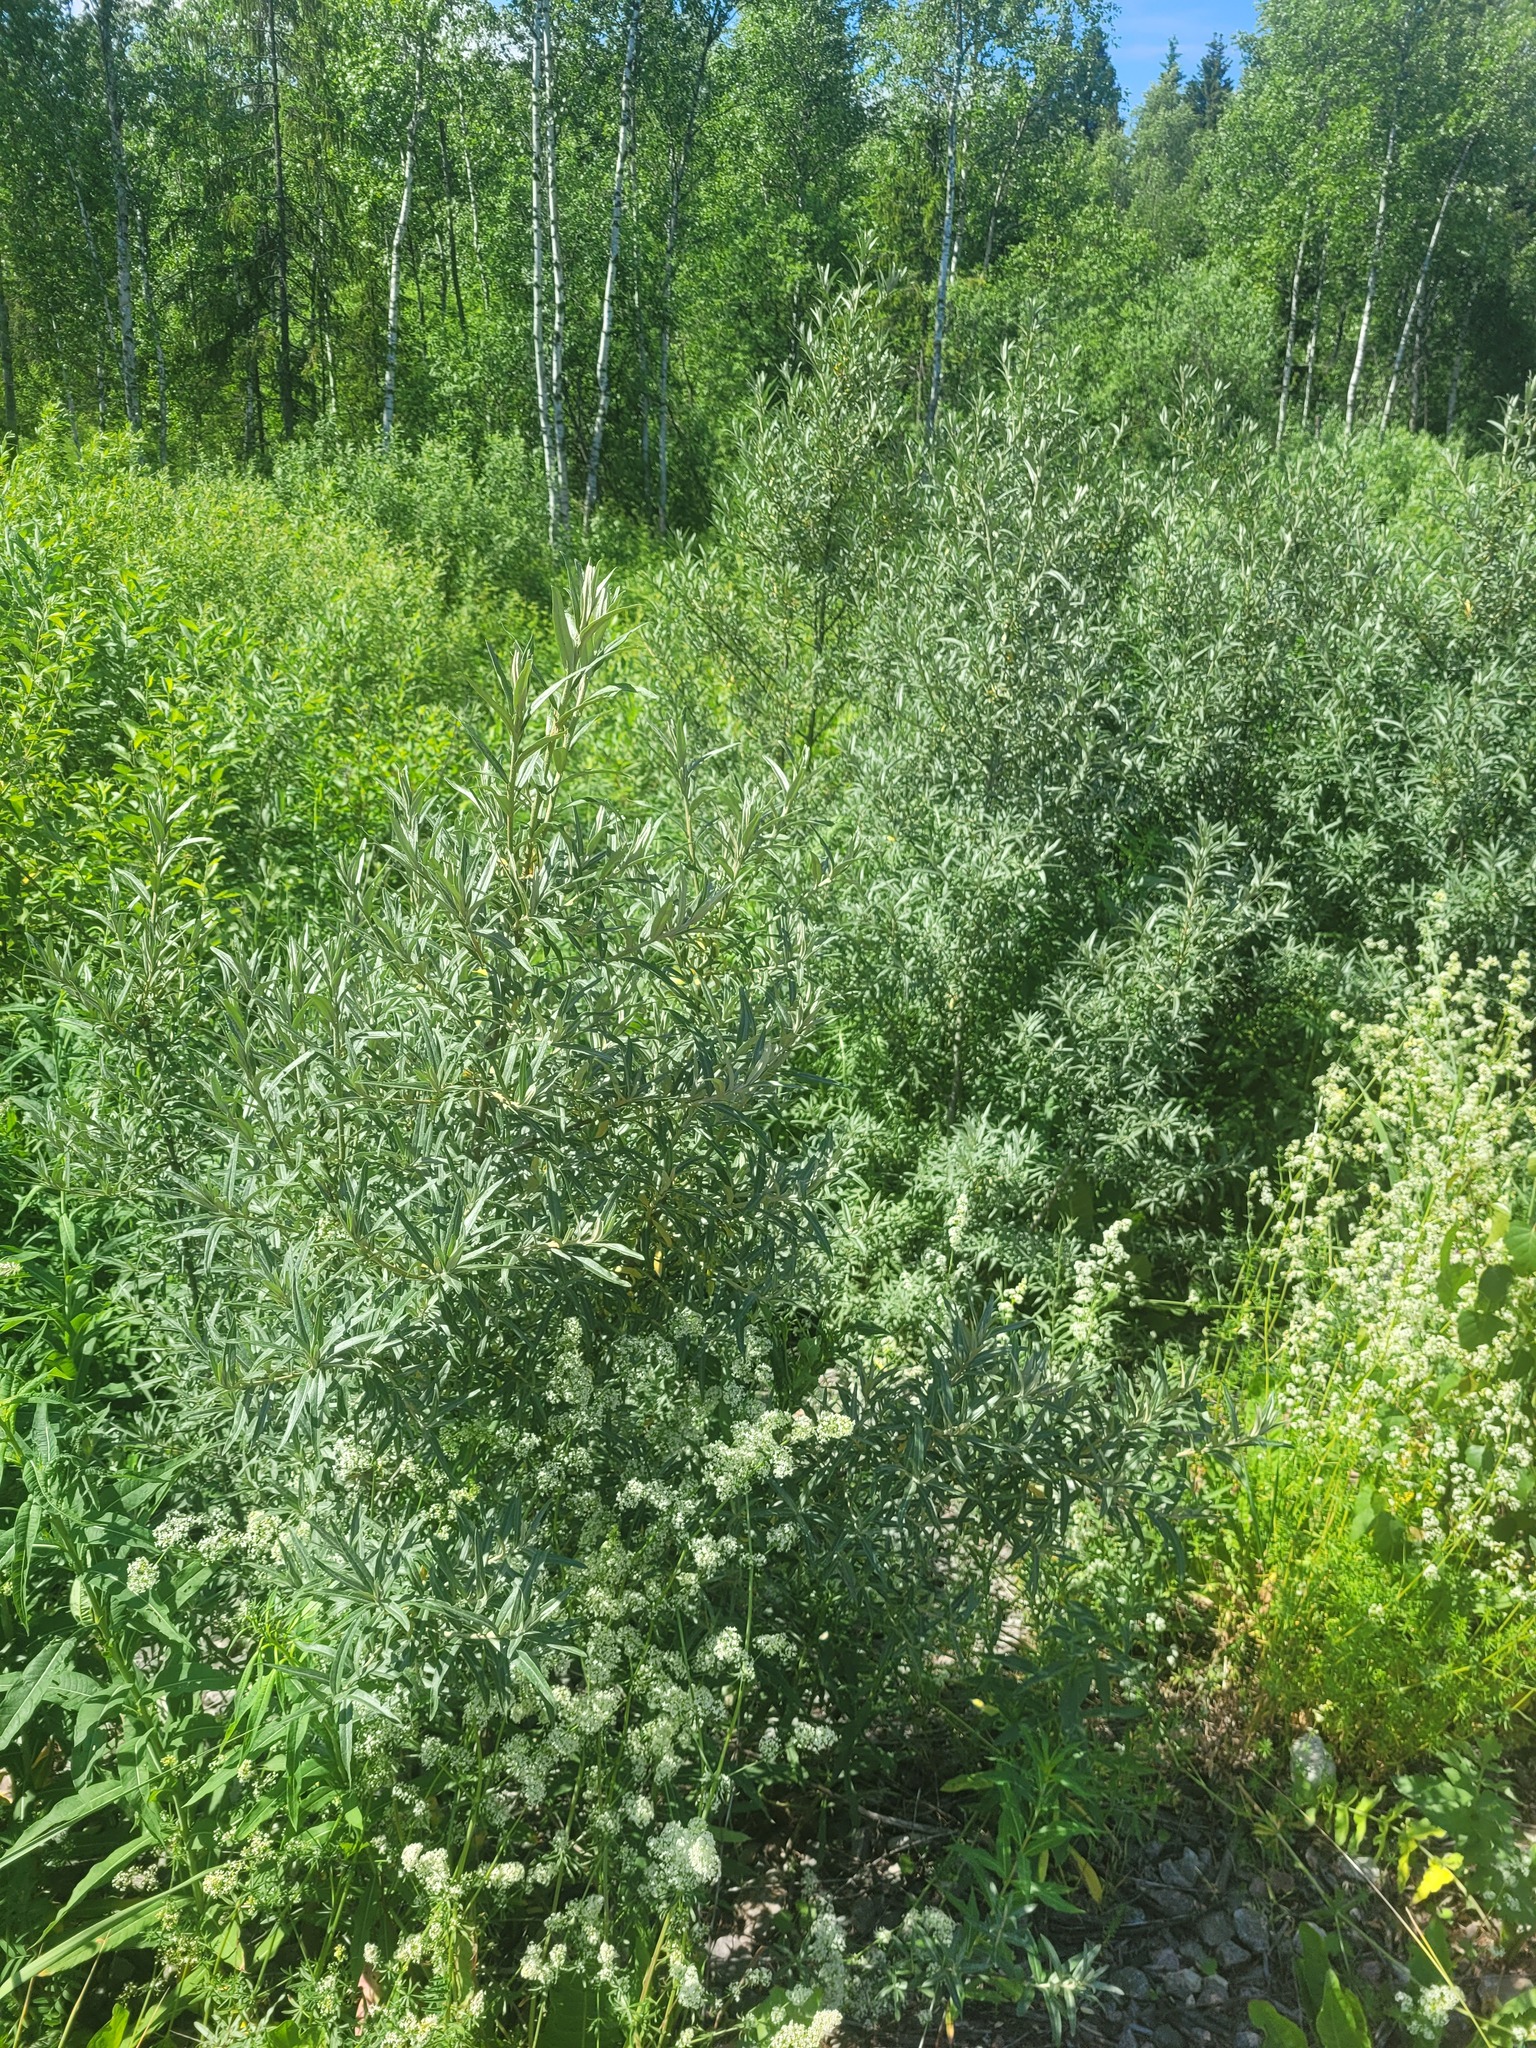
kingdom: Plantae
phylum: Tracheophyta
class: Magnoliopsida
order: Rosales
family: Elaeagnaceae
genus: Hippophae
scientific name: Hippophae rhamnoides
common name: Sea-buckthorn
